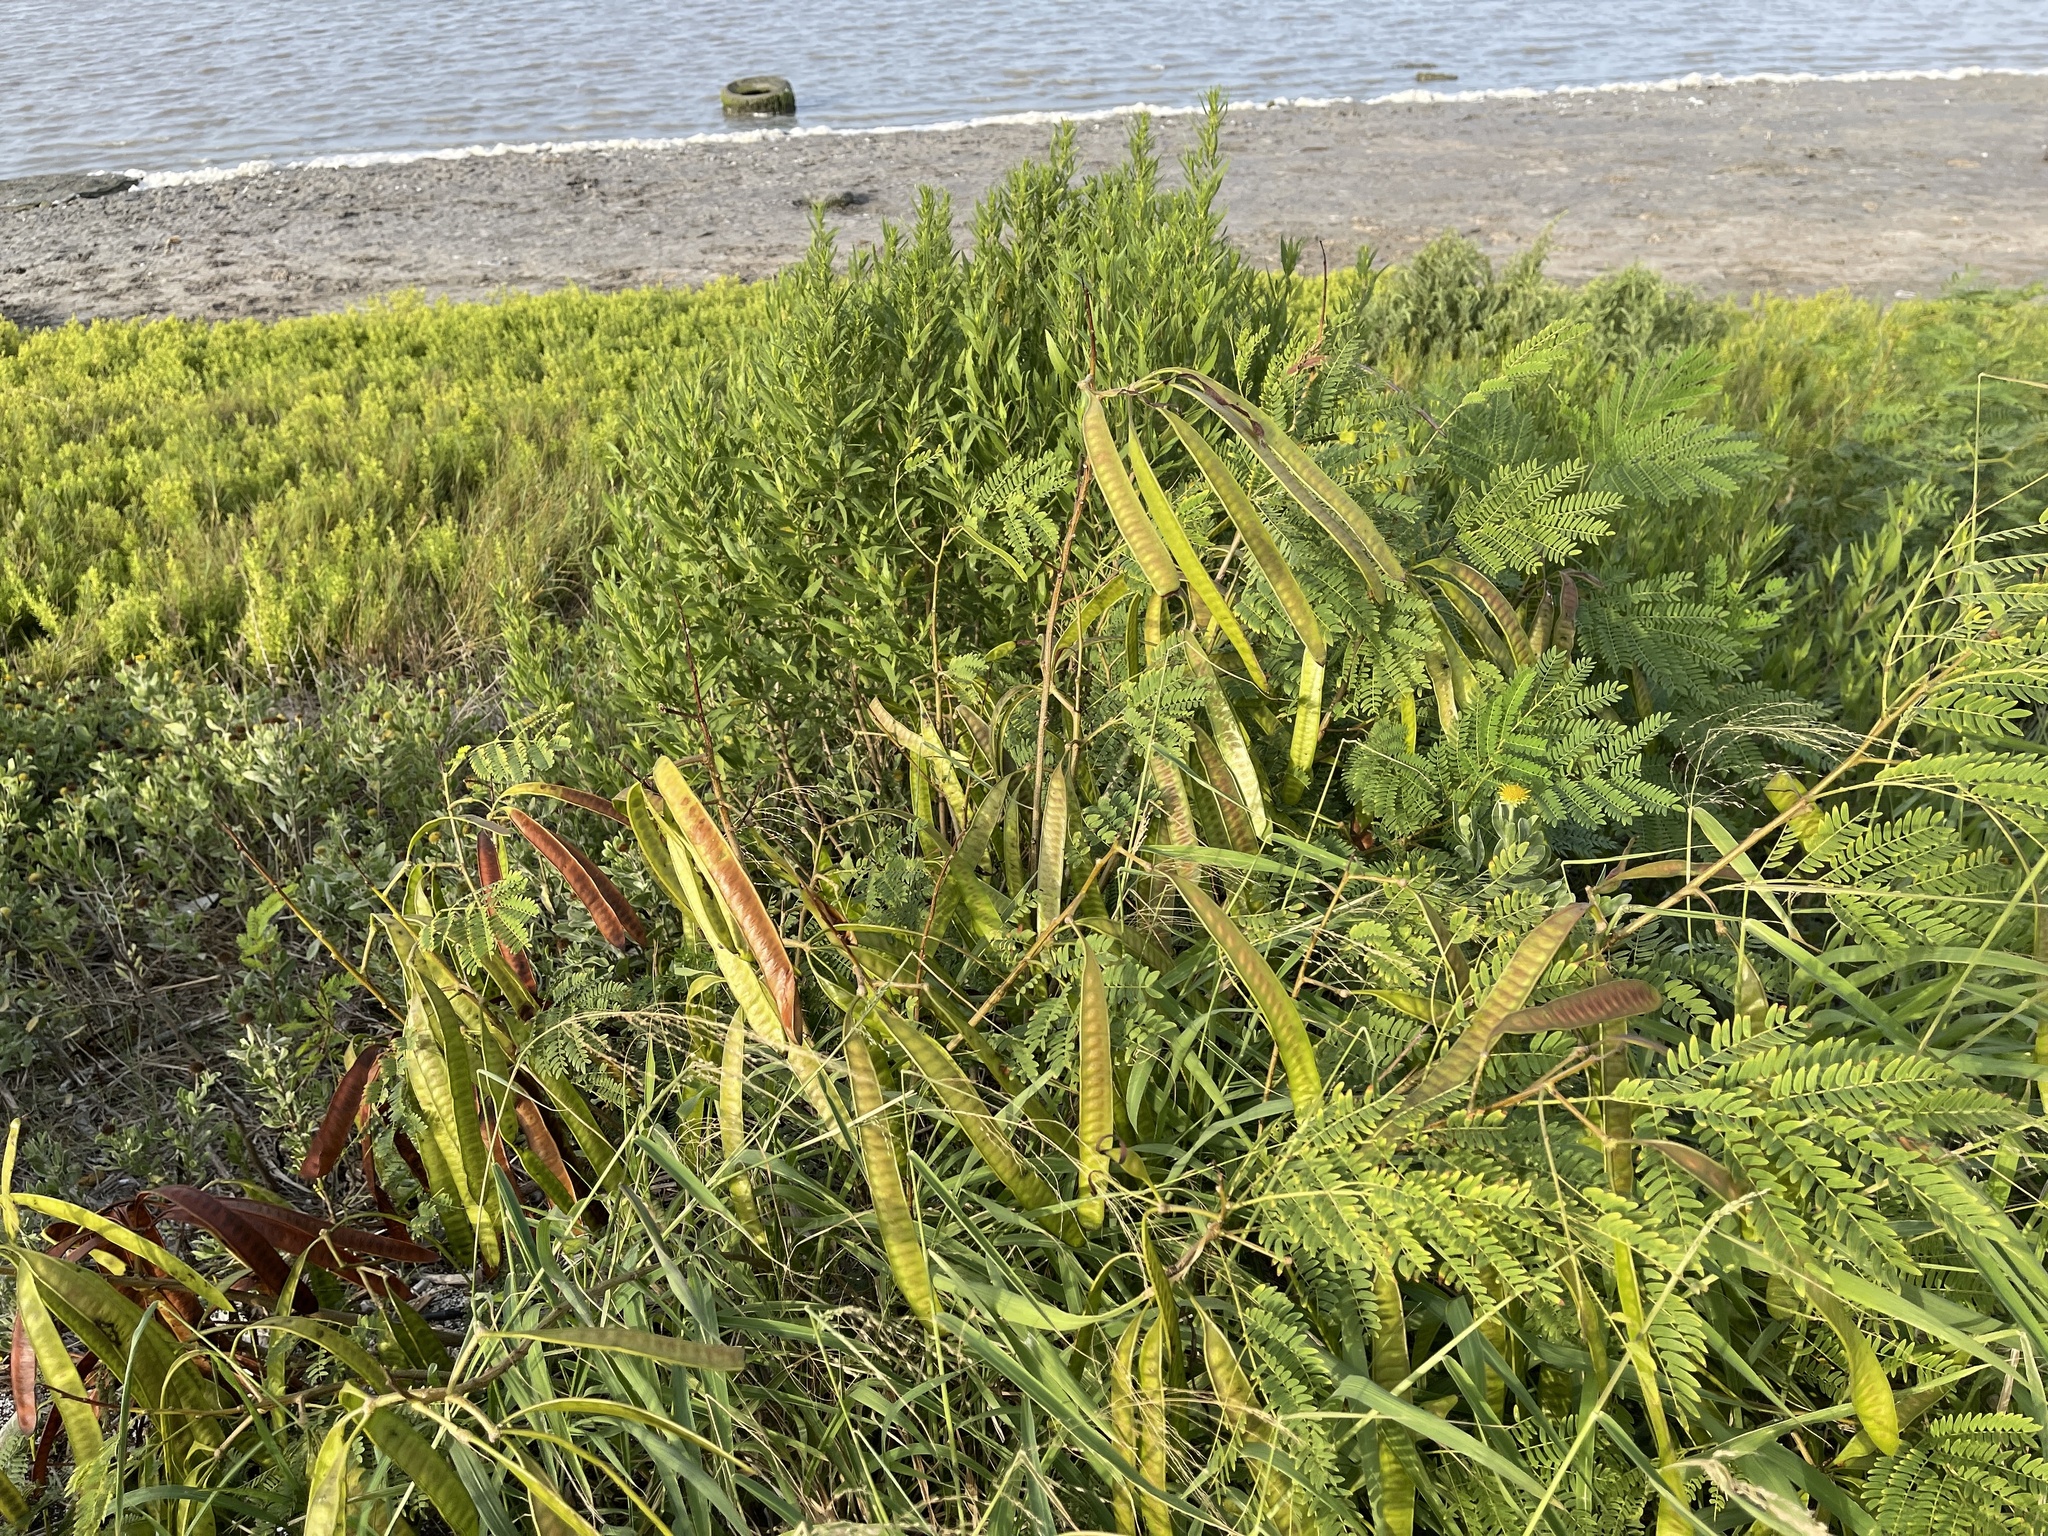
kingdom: Plantae
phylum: Tracheophyta
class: Magnoliopsida
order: Fabales
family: Fabaceae
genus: Leucaena
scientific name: Leucaena leucocephala
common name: White leadtree
